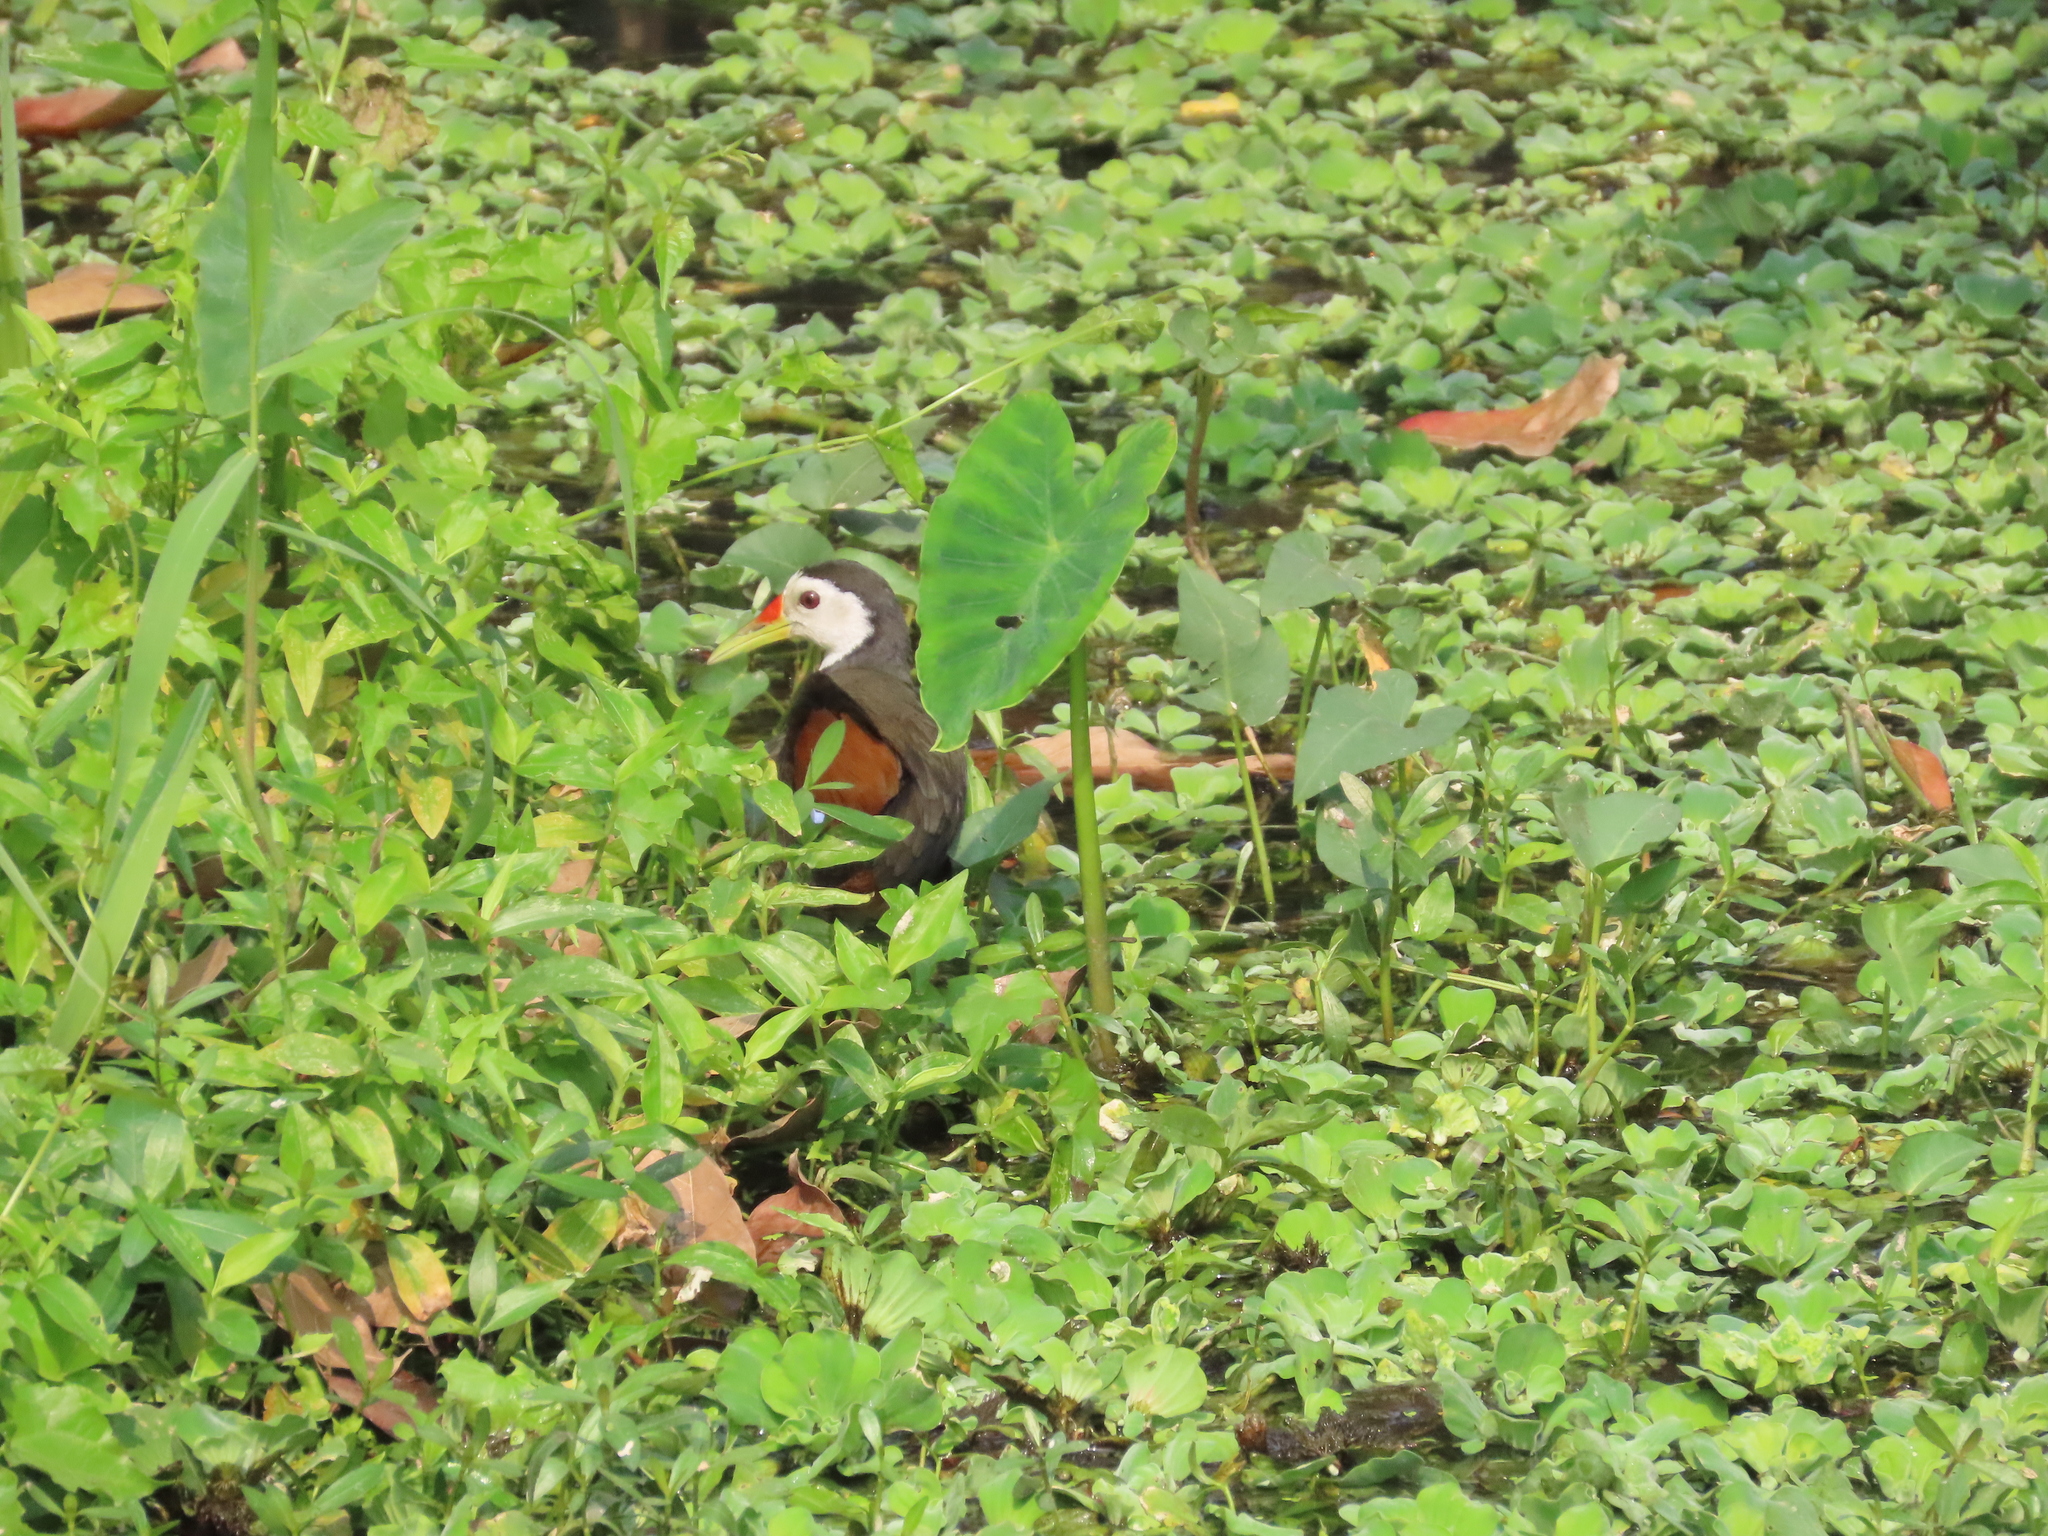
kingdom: Animalia
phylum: Chordata
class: Aves
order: Gruiformes
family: Rallidae
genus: Amaurornis
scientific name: Amaurornis phoenicurus
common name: White-breasted waterhen
